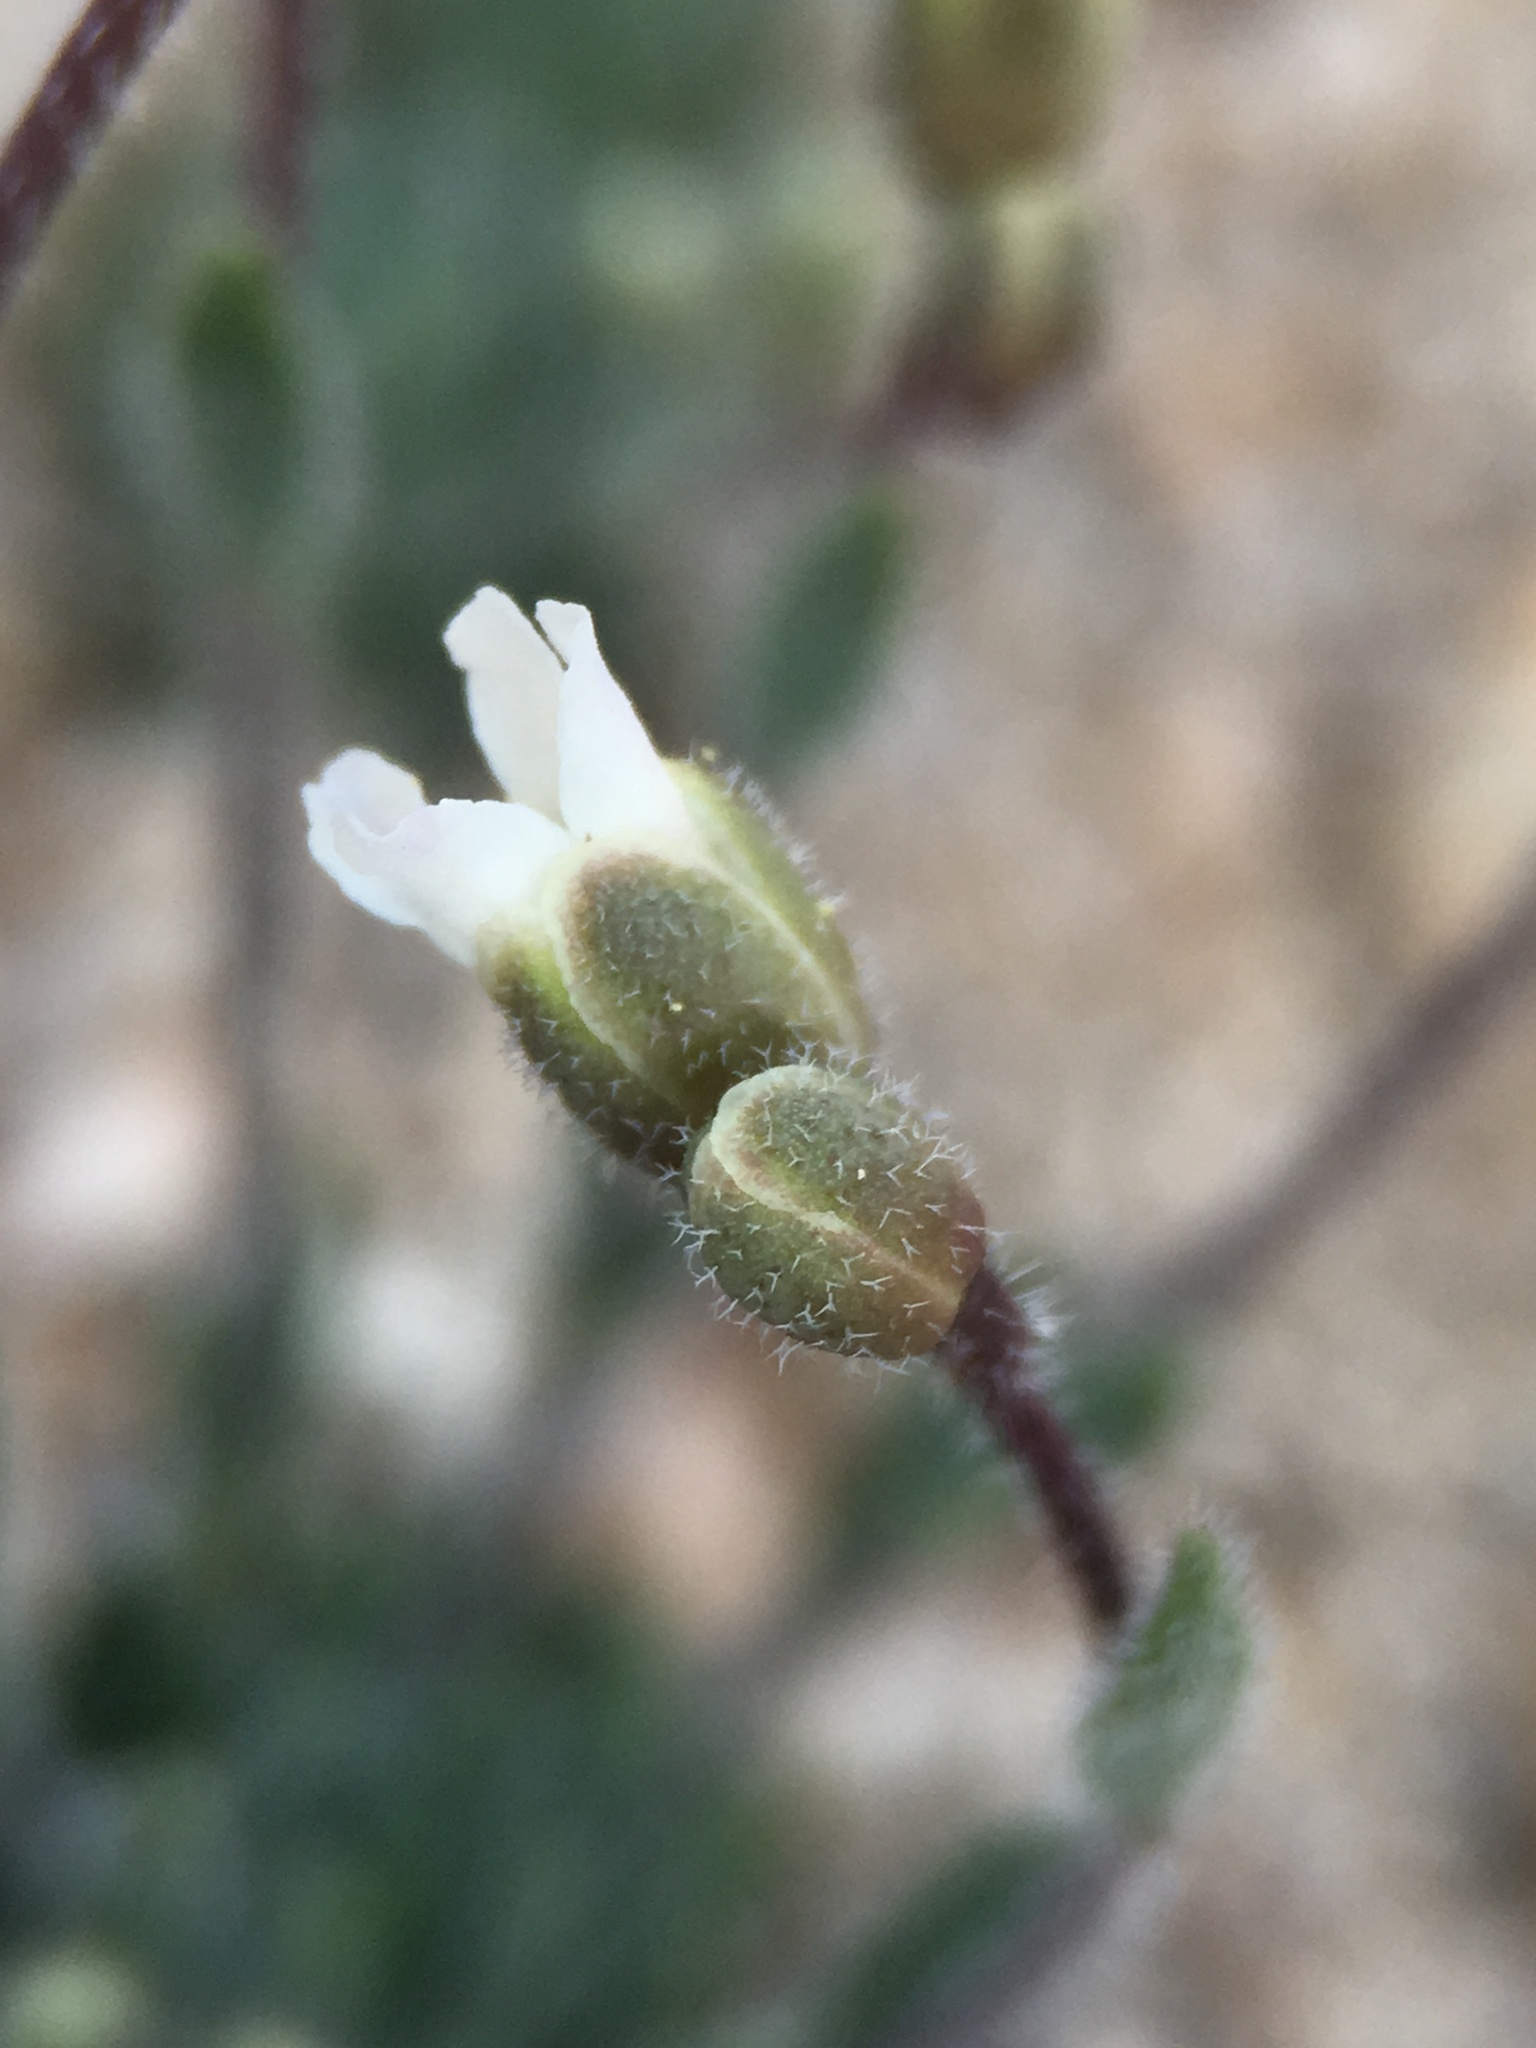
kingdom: Plantae
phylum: Tracheophyta
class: Magnoliopsida
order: Brassicales
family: Brassicaceae
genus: Boechera
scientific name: Boechera pygmaea
